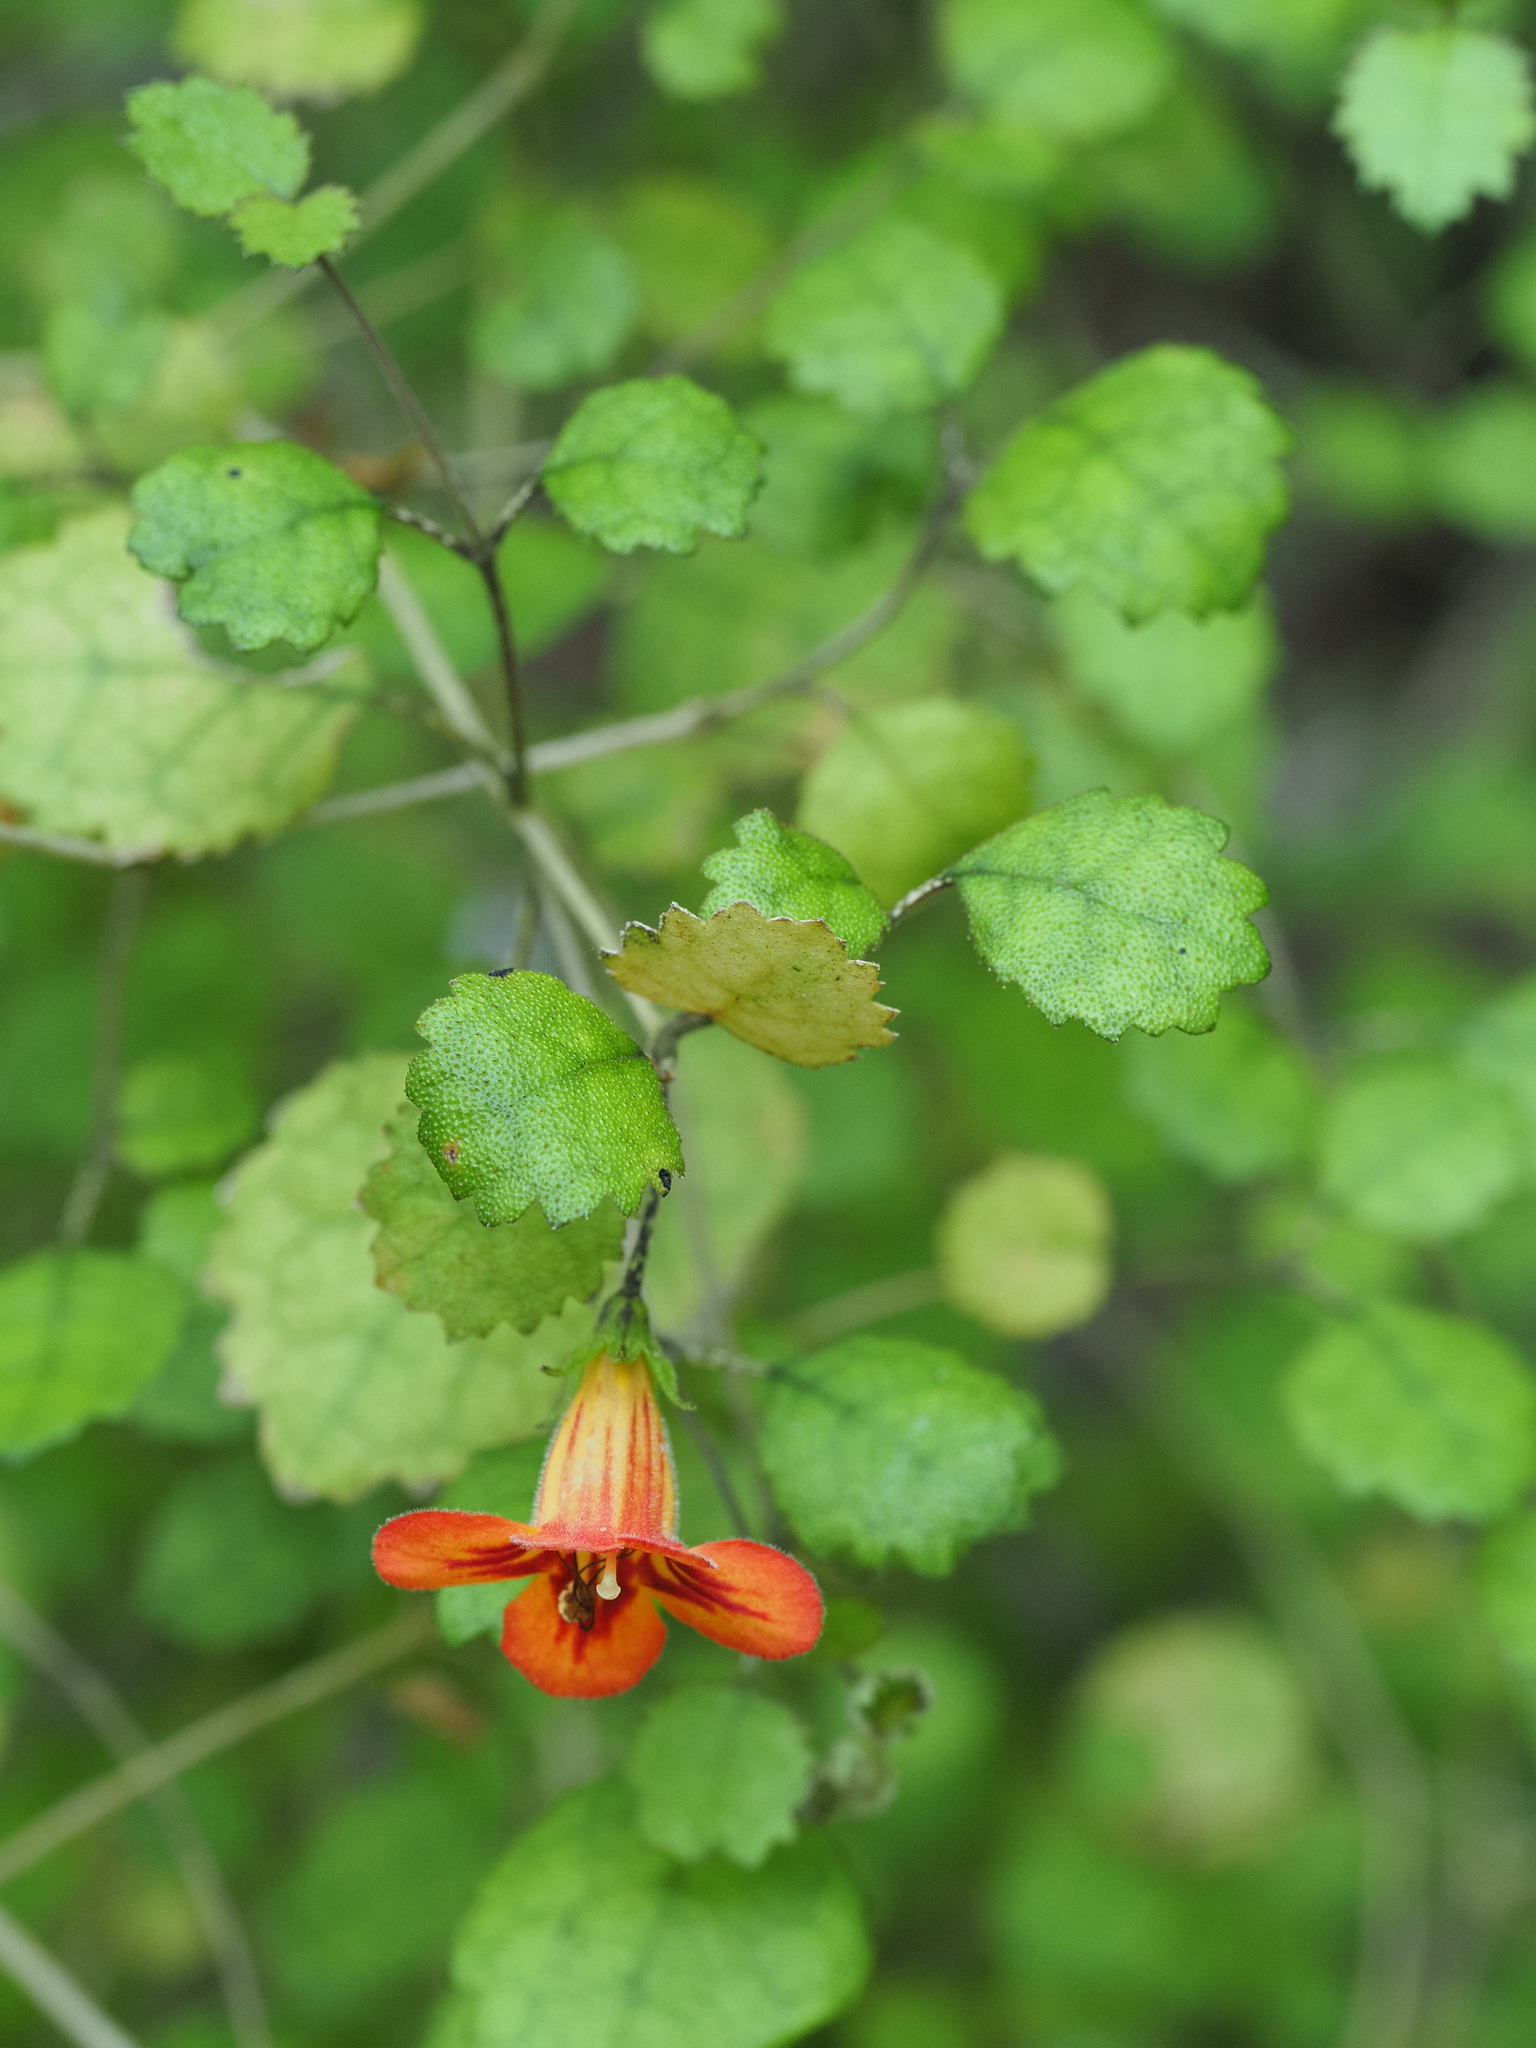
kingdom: Plantae
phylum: Tracheophyta
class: Magnoliopsida
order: Lamiales
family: Gesneriaceae
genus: Rhabdothamnus
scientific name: Rhabdothamnus solandri
